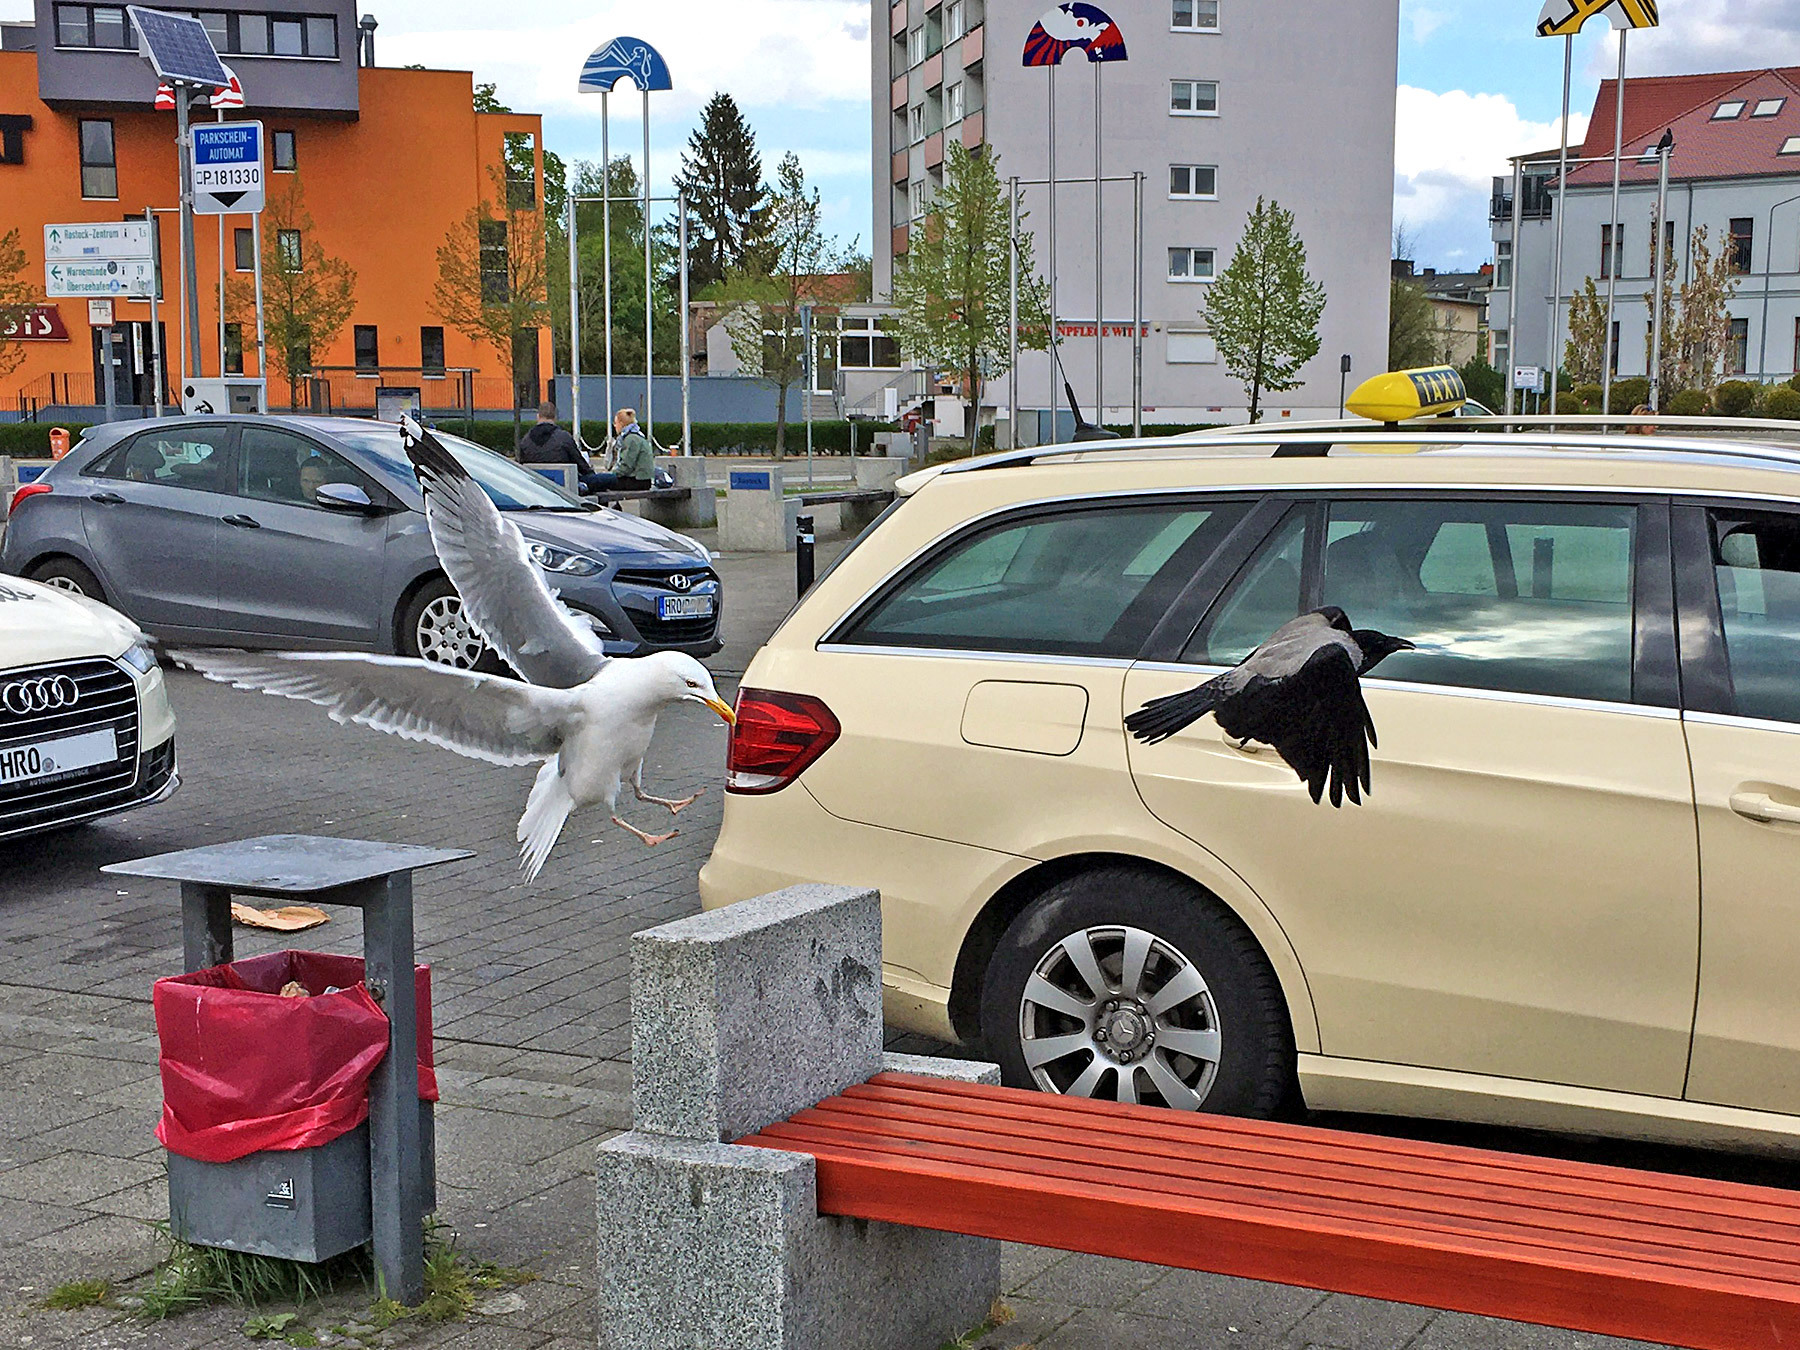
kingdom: Animalia
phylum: Chordata
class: Aves
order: Charadriiformes
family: Laridae
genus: Larus
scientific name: Larus argentatus
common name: Herring gull
